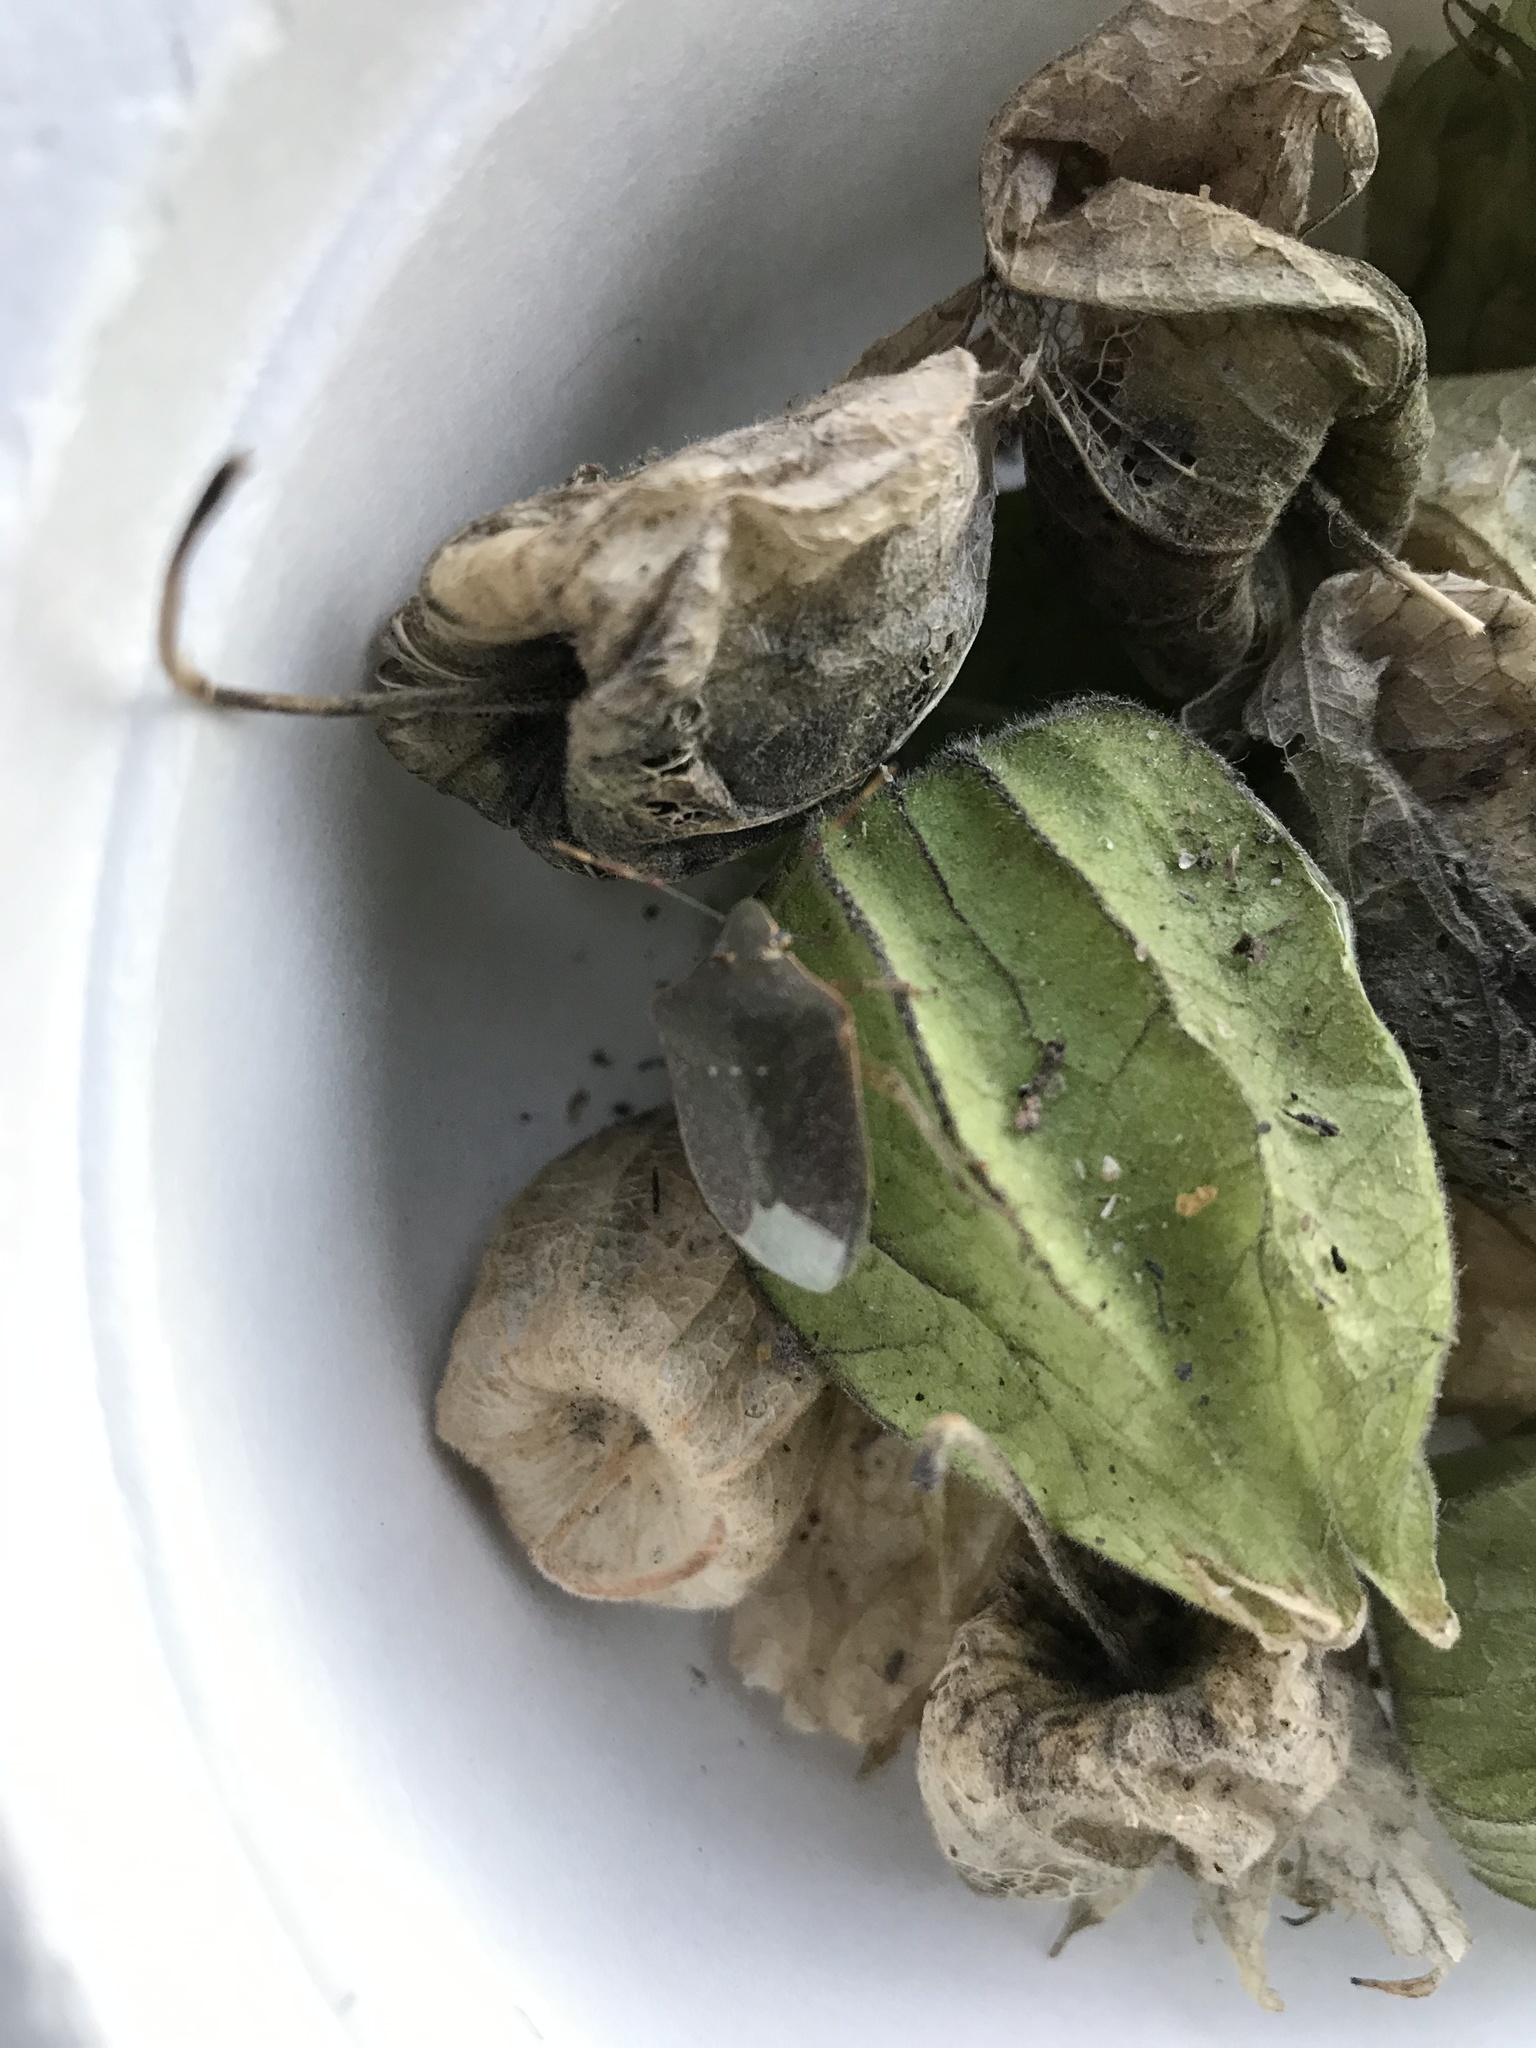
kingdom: Animalia
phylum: Arthropoda
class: Insecta
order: Hemiptera
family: Pentatomidae
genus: Nezara
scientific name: Nezara viridula
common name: Southern green stink bug
